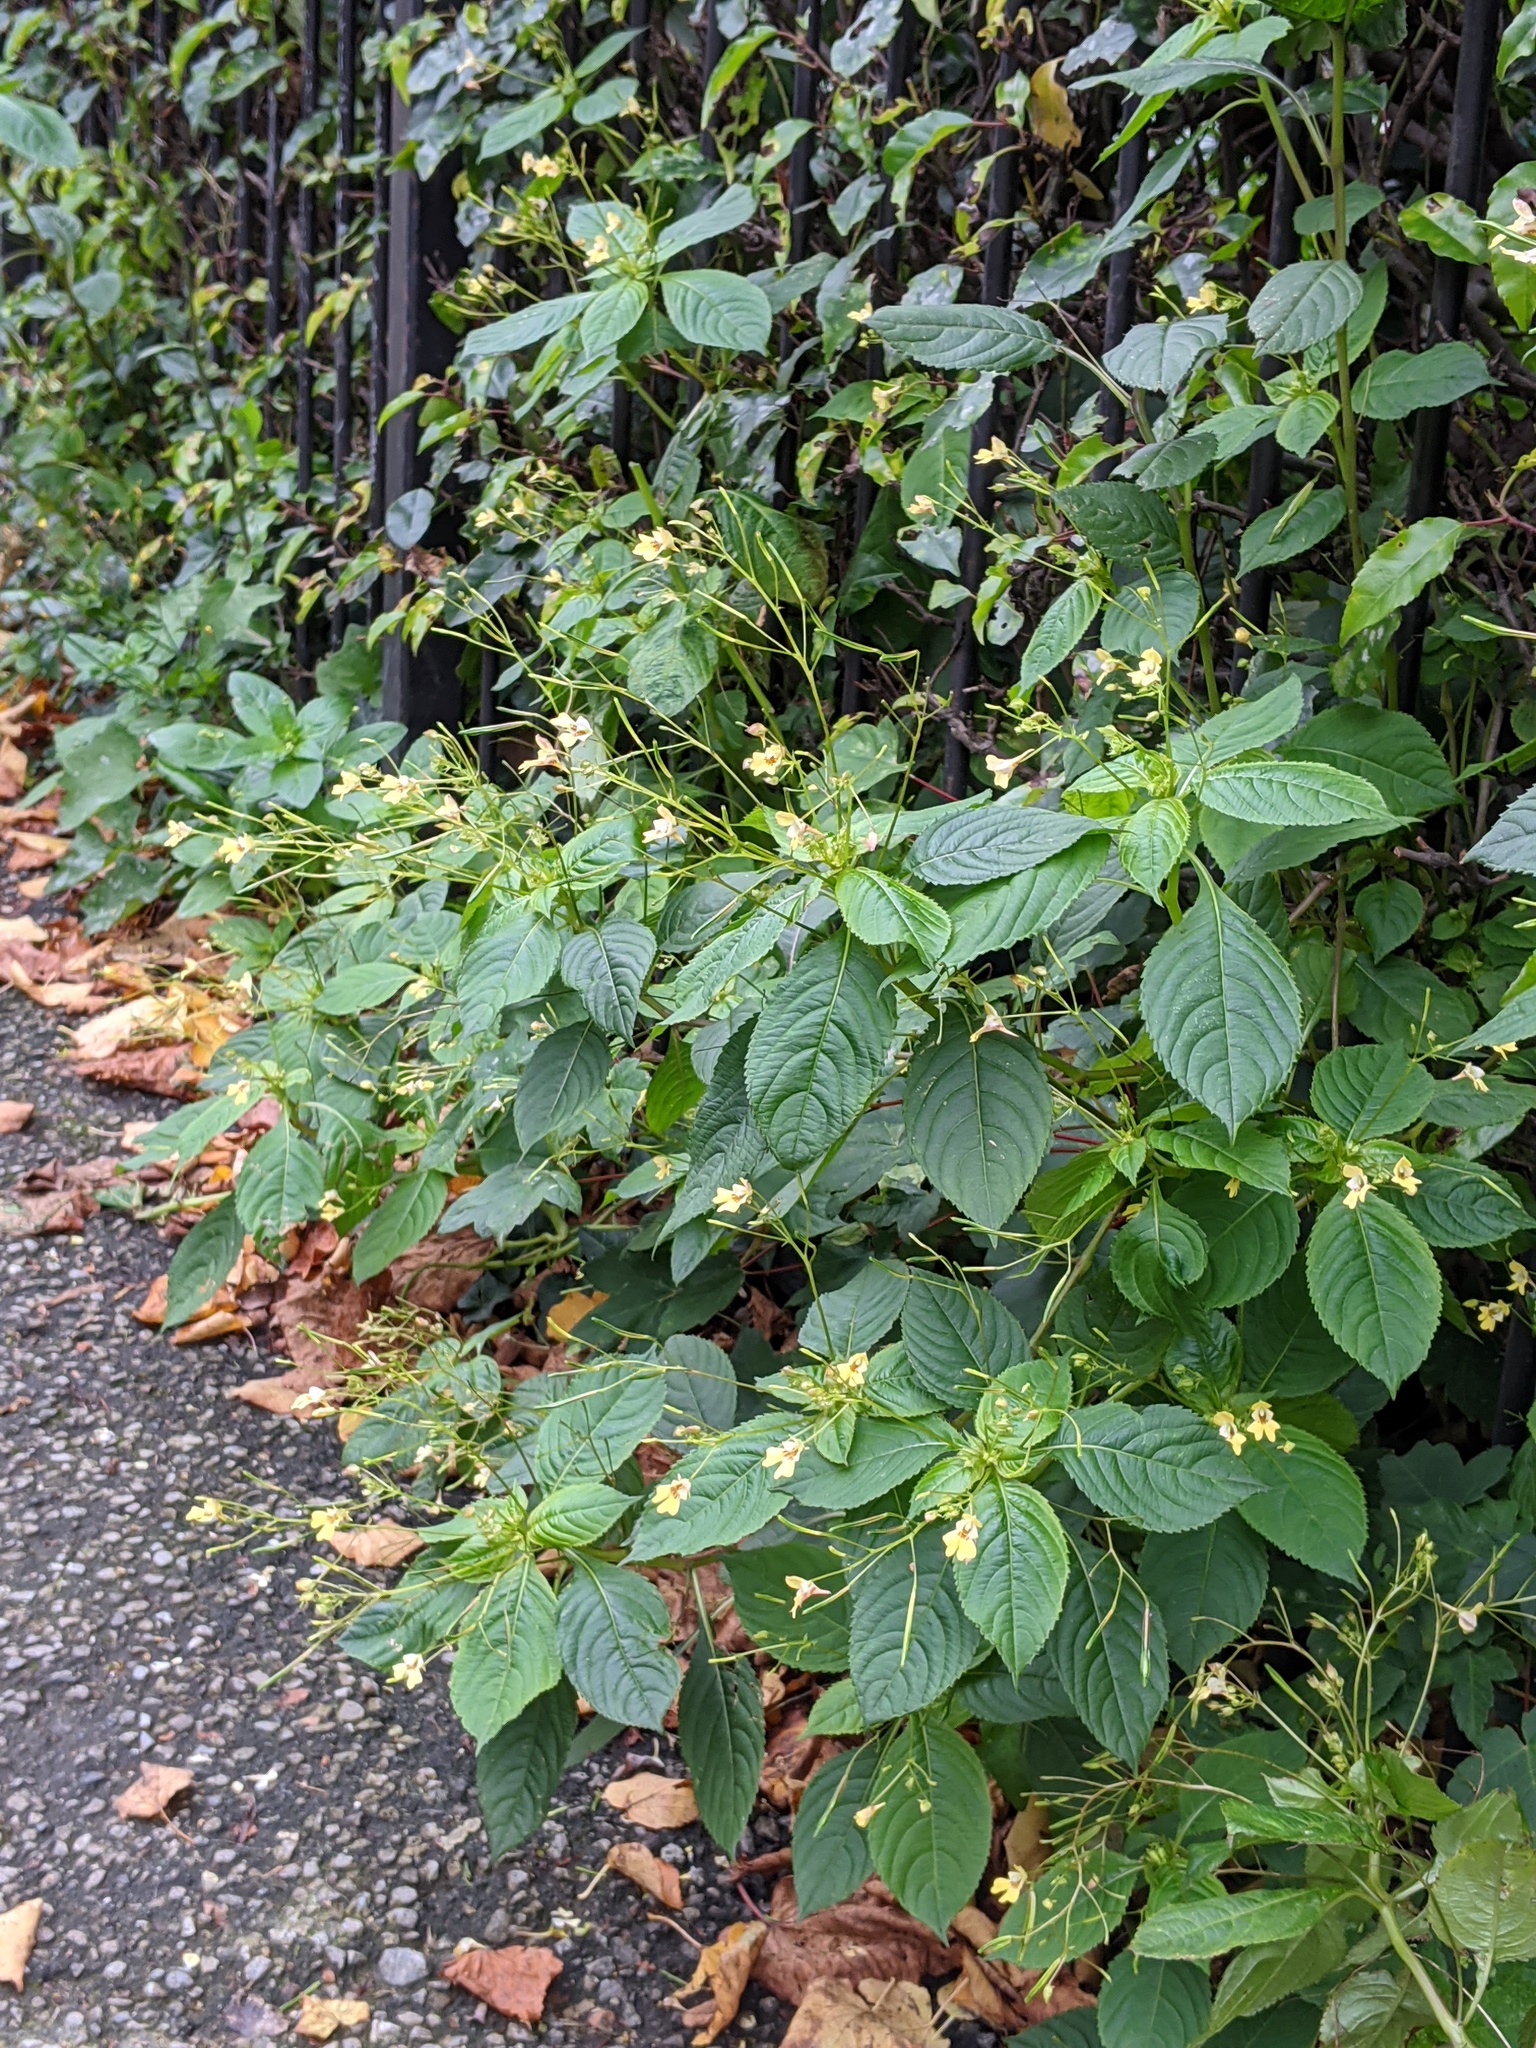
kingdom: Plantae
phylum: Tracheophyta
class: Magnoliopsida
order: Ericales
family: Balsaminaceae
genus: Impatiens
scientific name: Impatiens parviflora
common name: Small balsam
